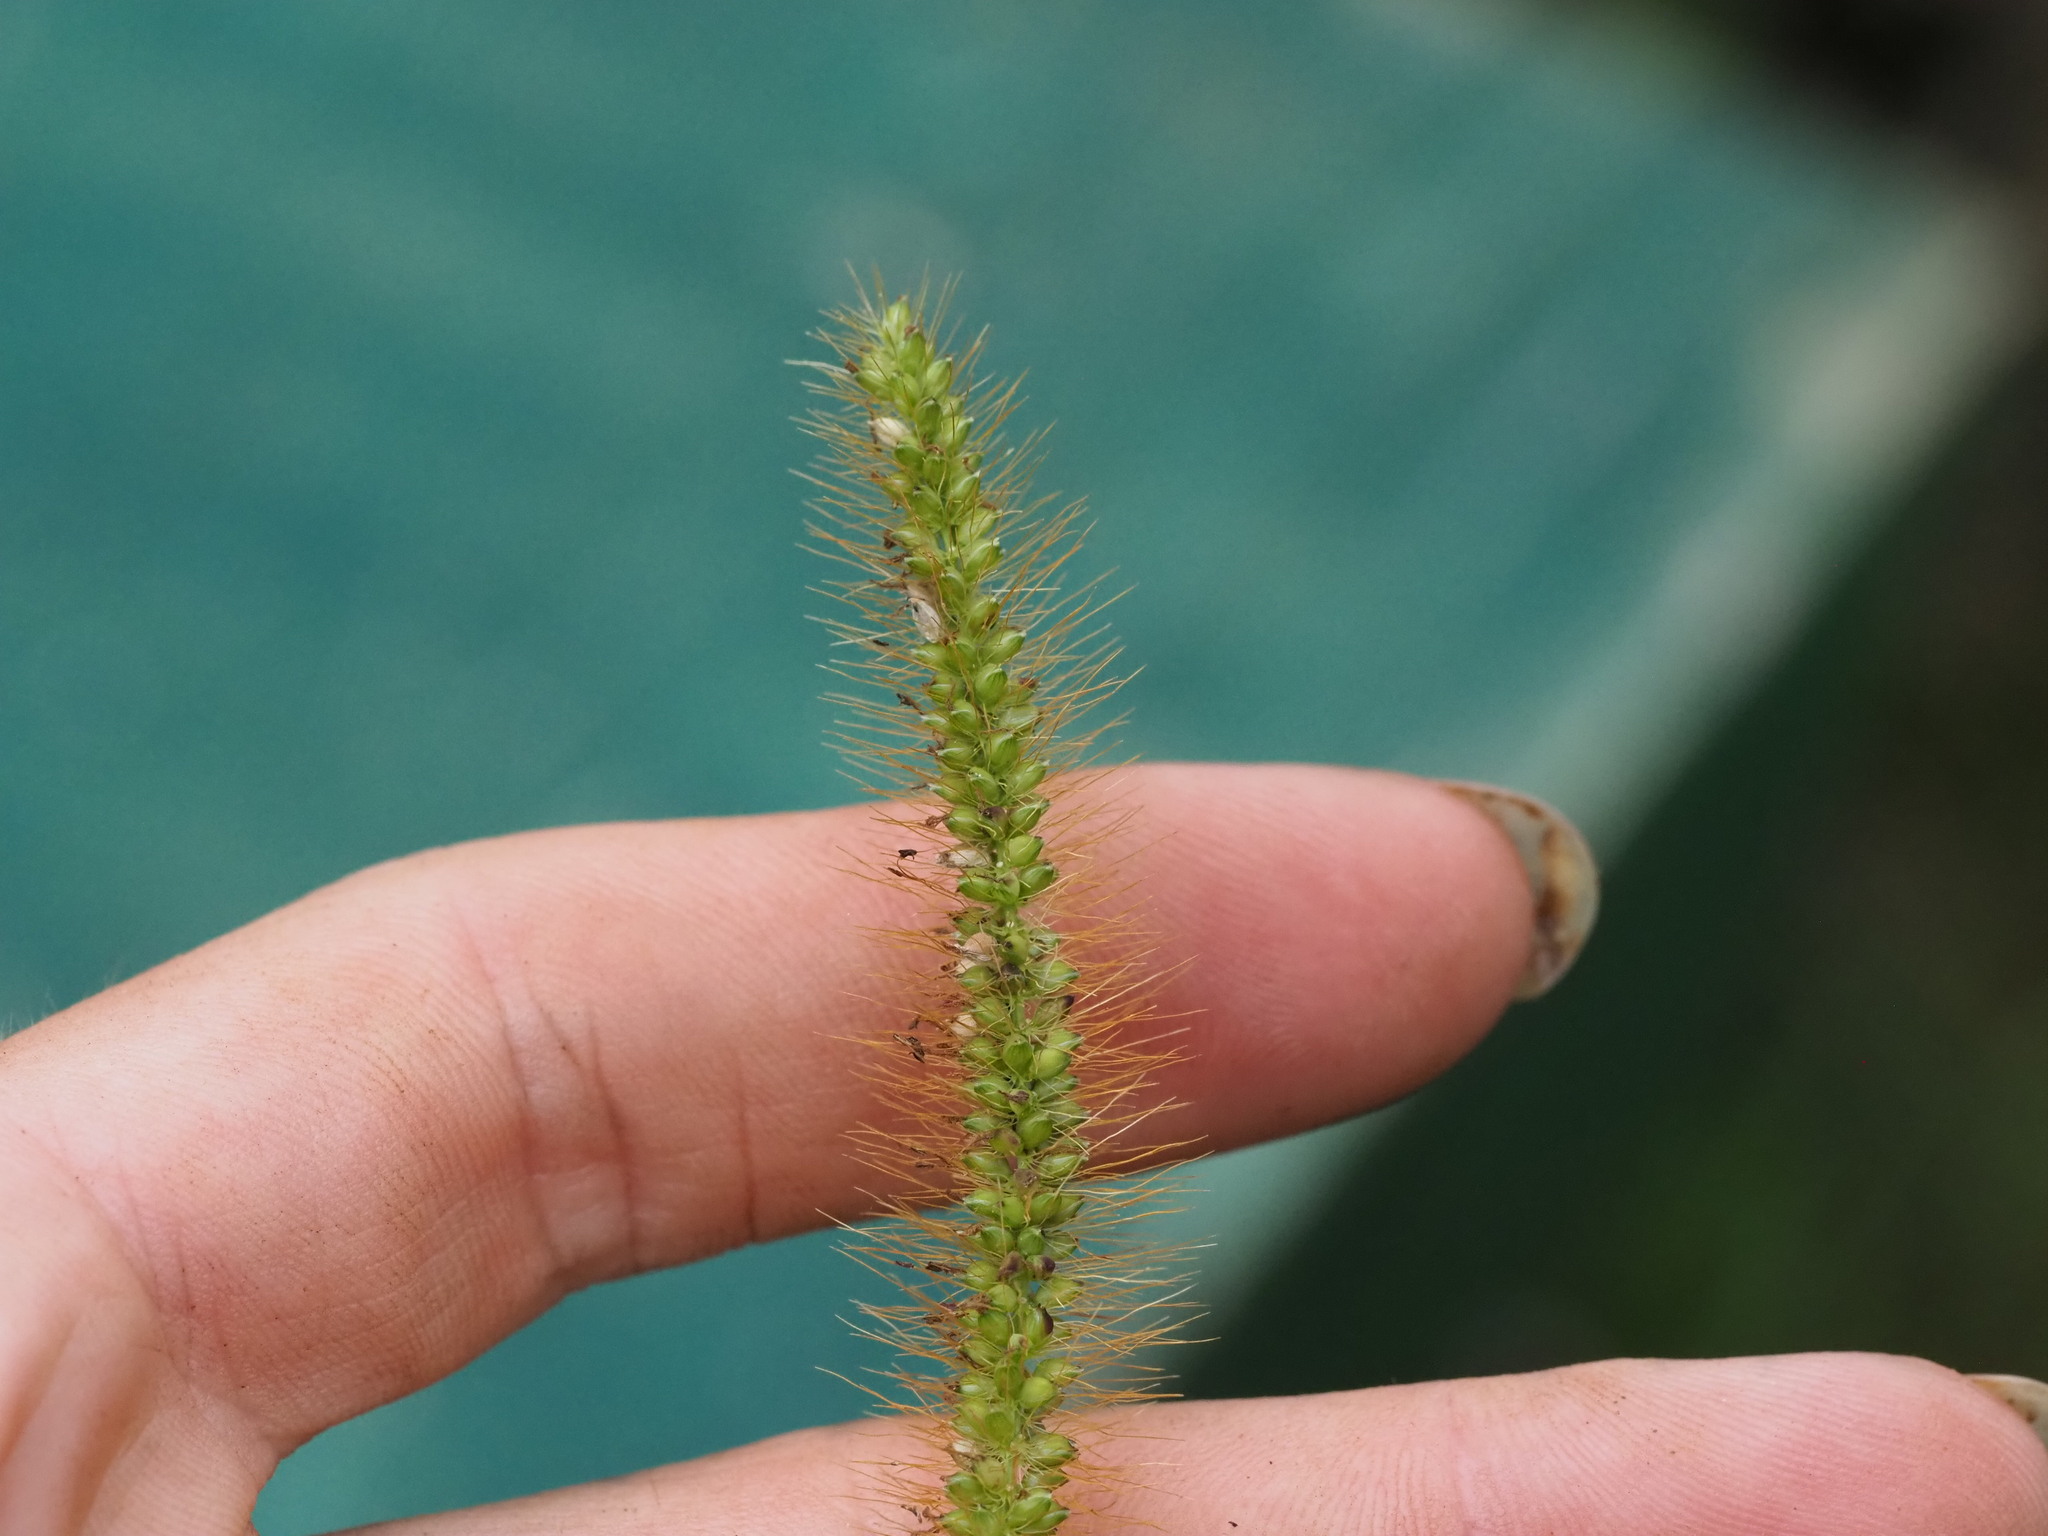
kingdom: Plantae
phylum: Tracheophyta
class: Liliopsida
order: Poales
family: Poaceae
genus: Setaria
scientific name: Setaria parviflora
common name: Knotroot bristle-grass
